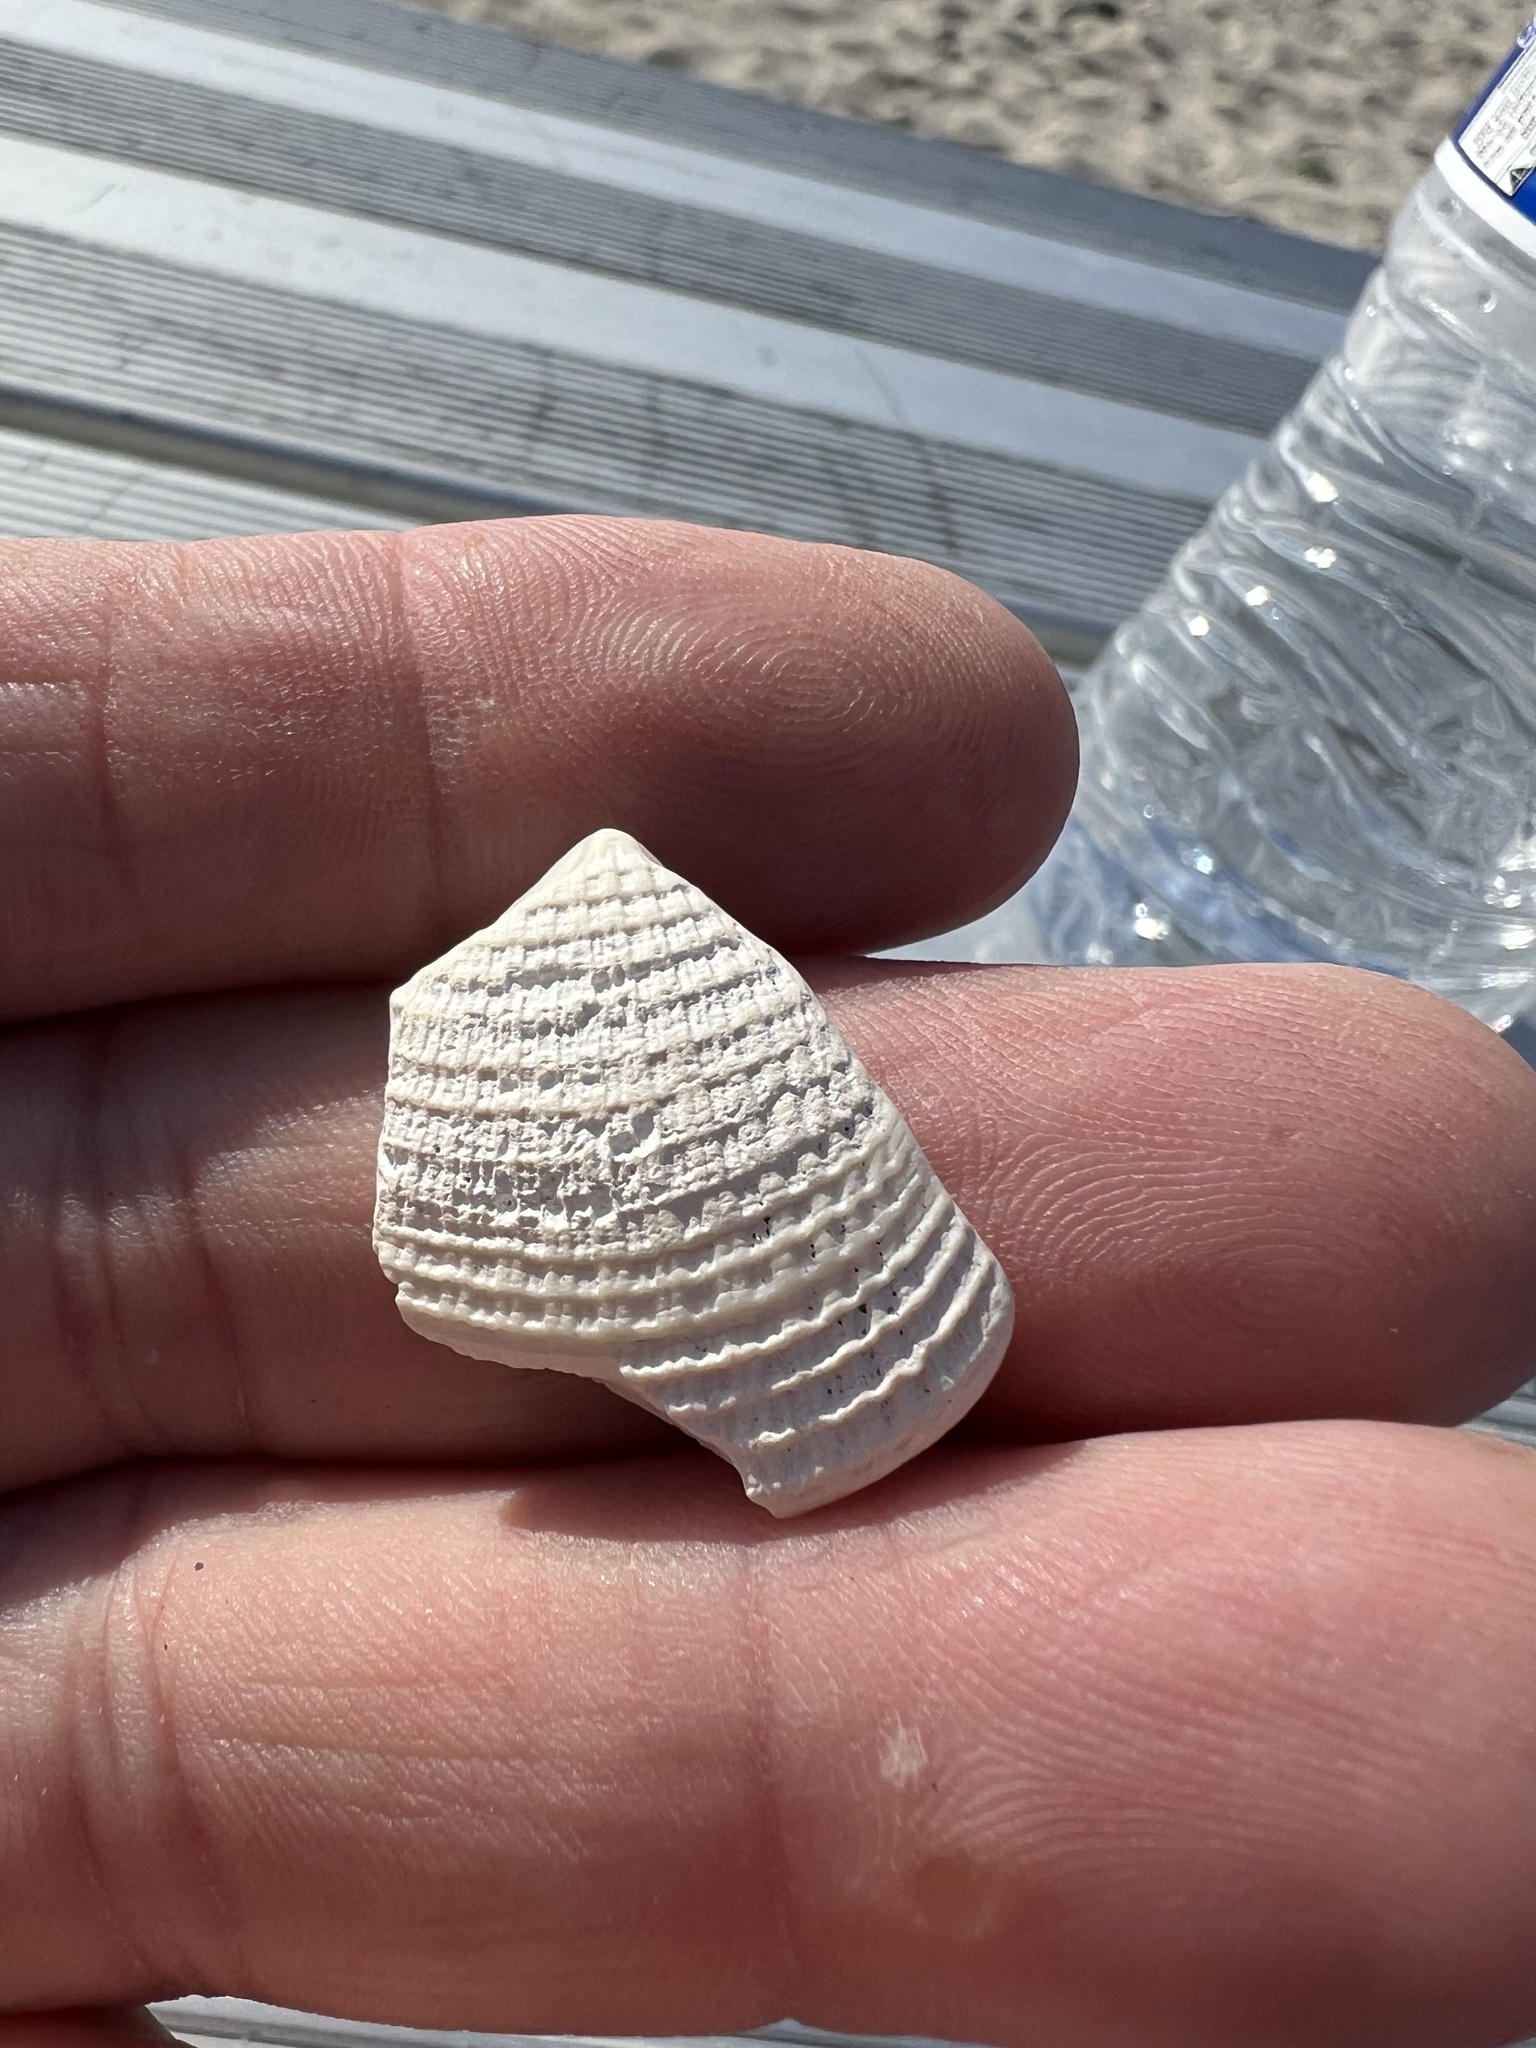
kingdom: Animalia
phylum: Mollusca
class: Bivalvia
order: Venerida
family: Veneridae
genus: Chione
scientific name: Chione californiensis
